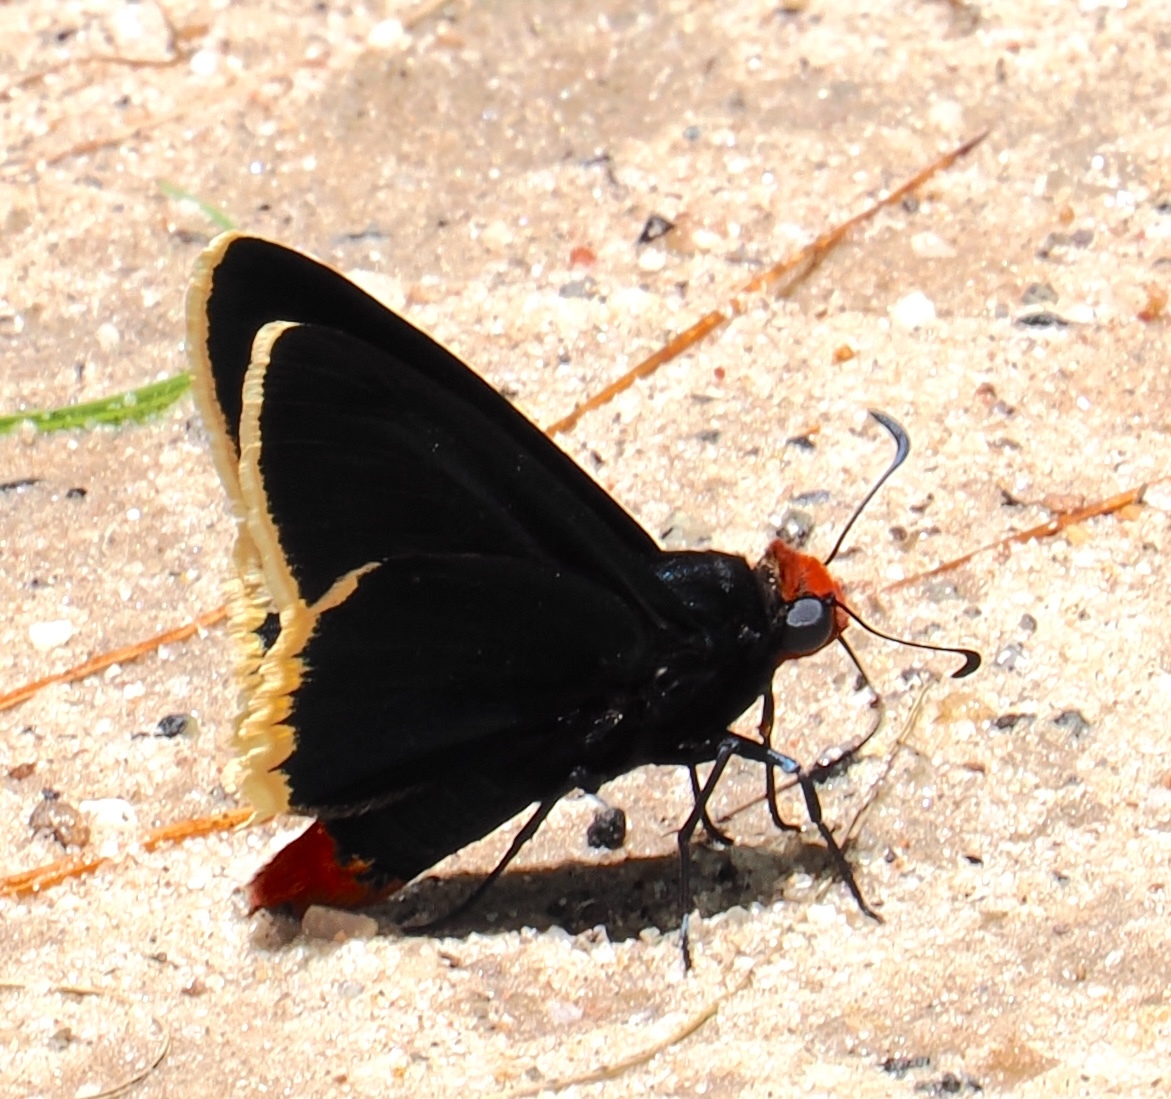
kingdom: Animalia
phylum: Arthropoda
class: Insecta
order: Lepidoptera
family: Hesperiidae
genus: Elbella
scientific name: Elbella
